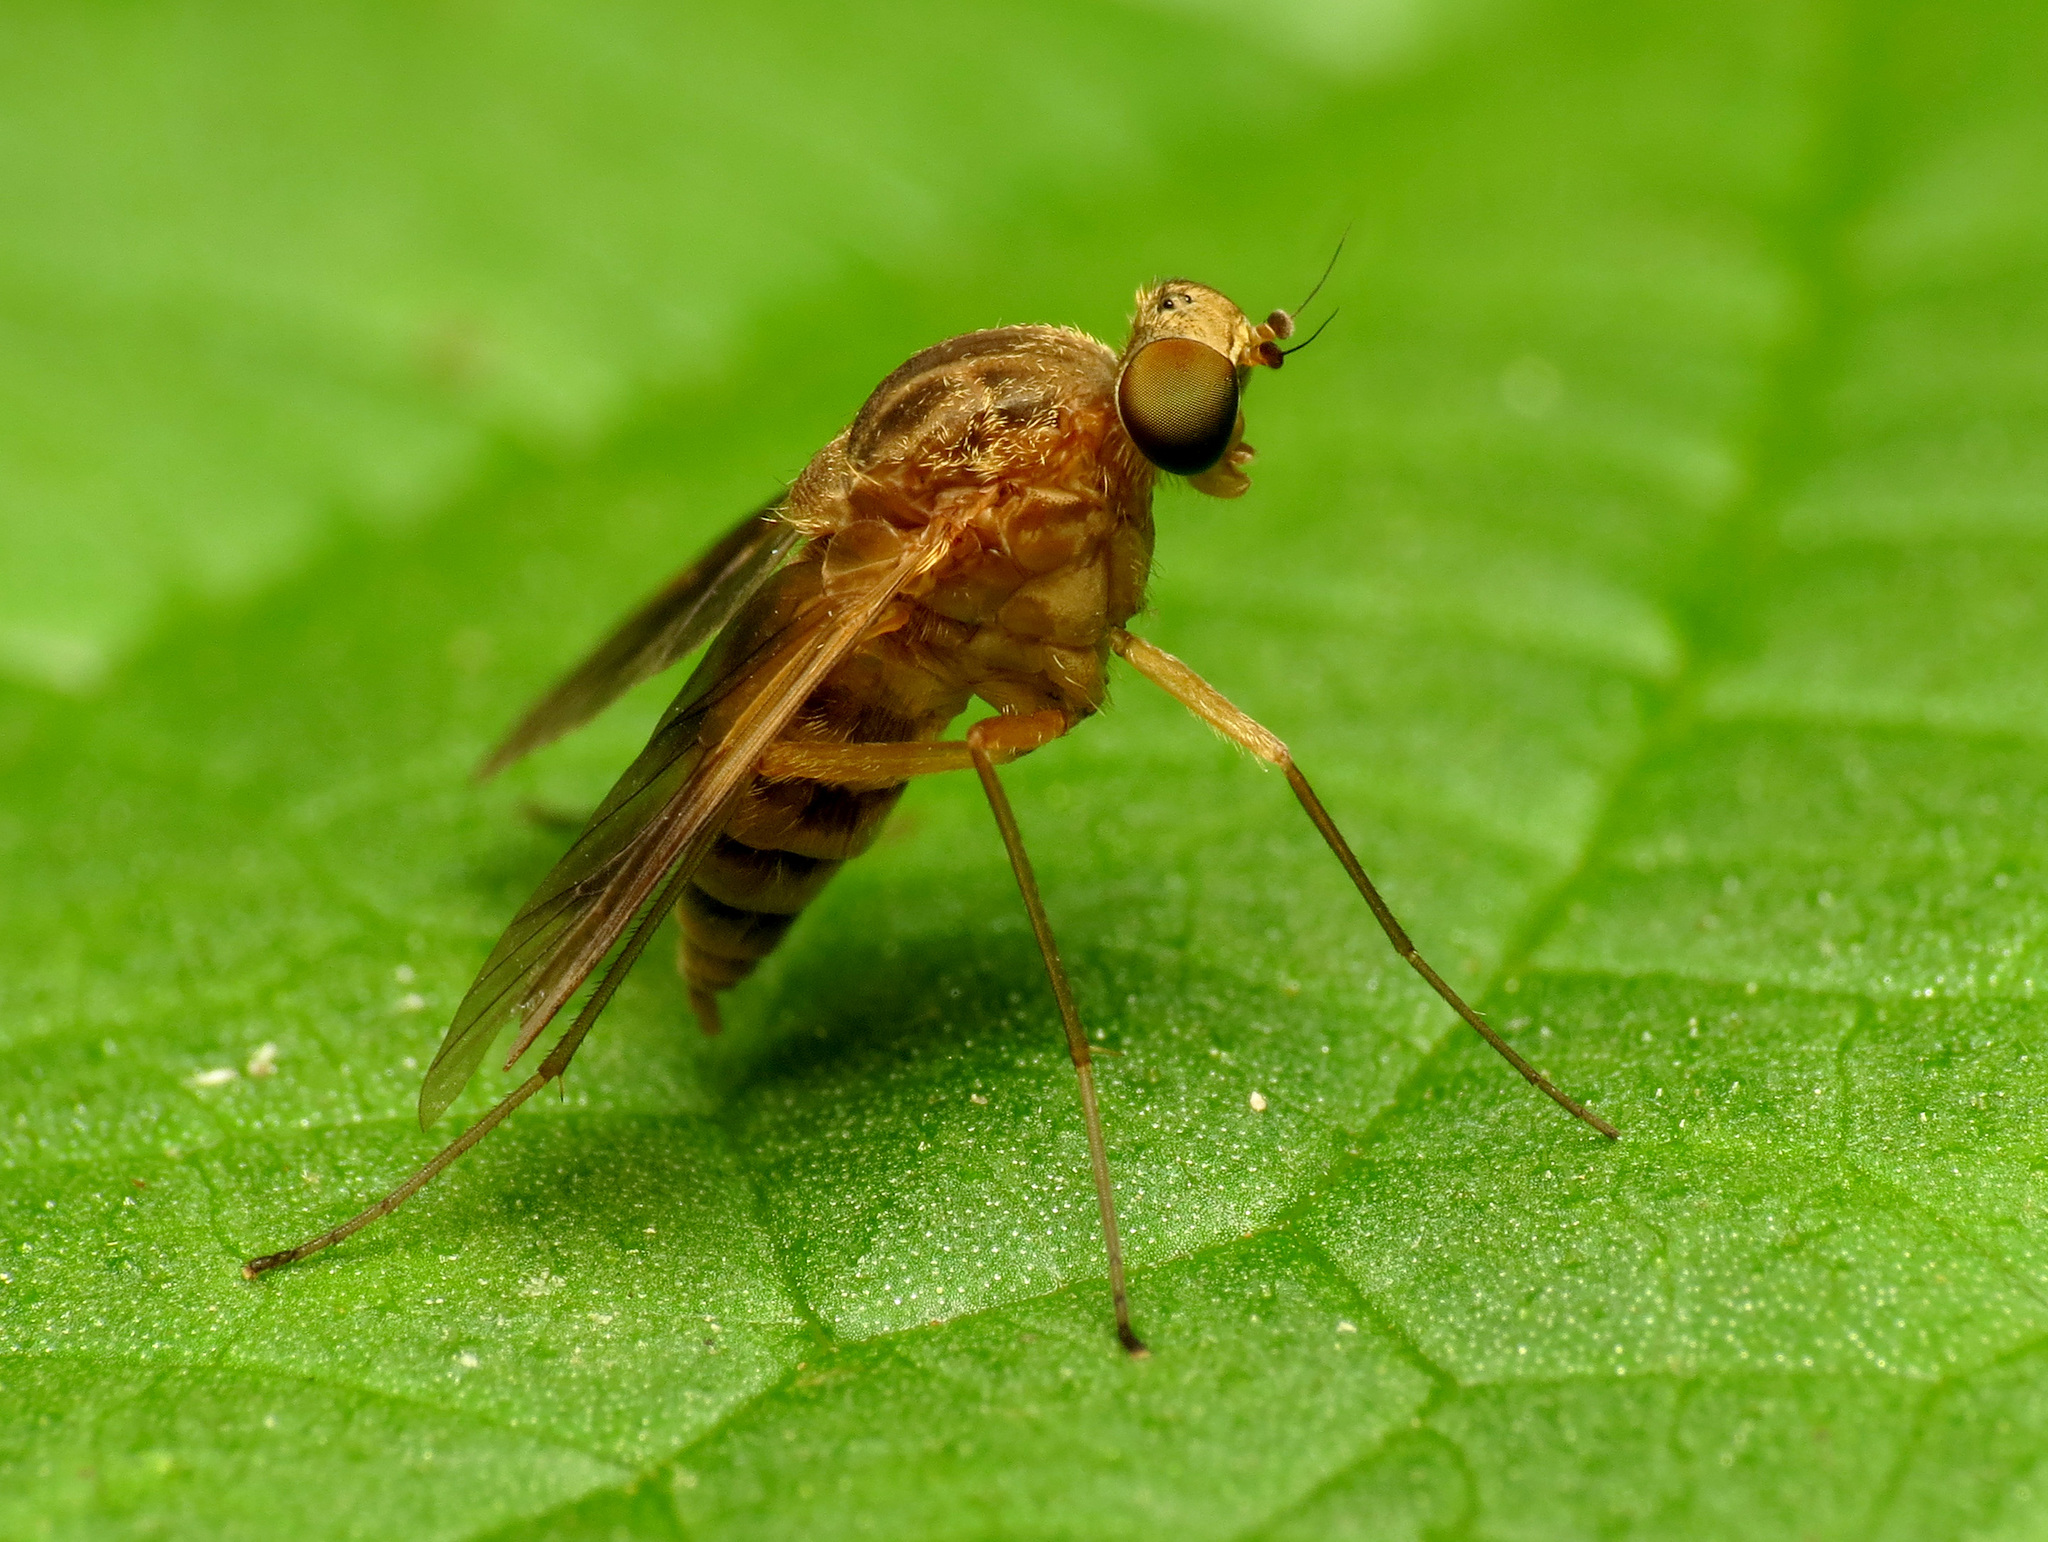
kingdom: Animalia
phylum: Arthropoda
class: Insecta
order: Diptera
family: Rhagionidae
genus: Chrysopilus
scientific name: Chrysopilus quadratus
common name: Quadrate snipe fly
